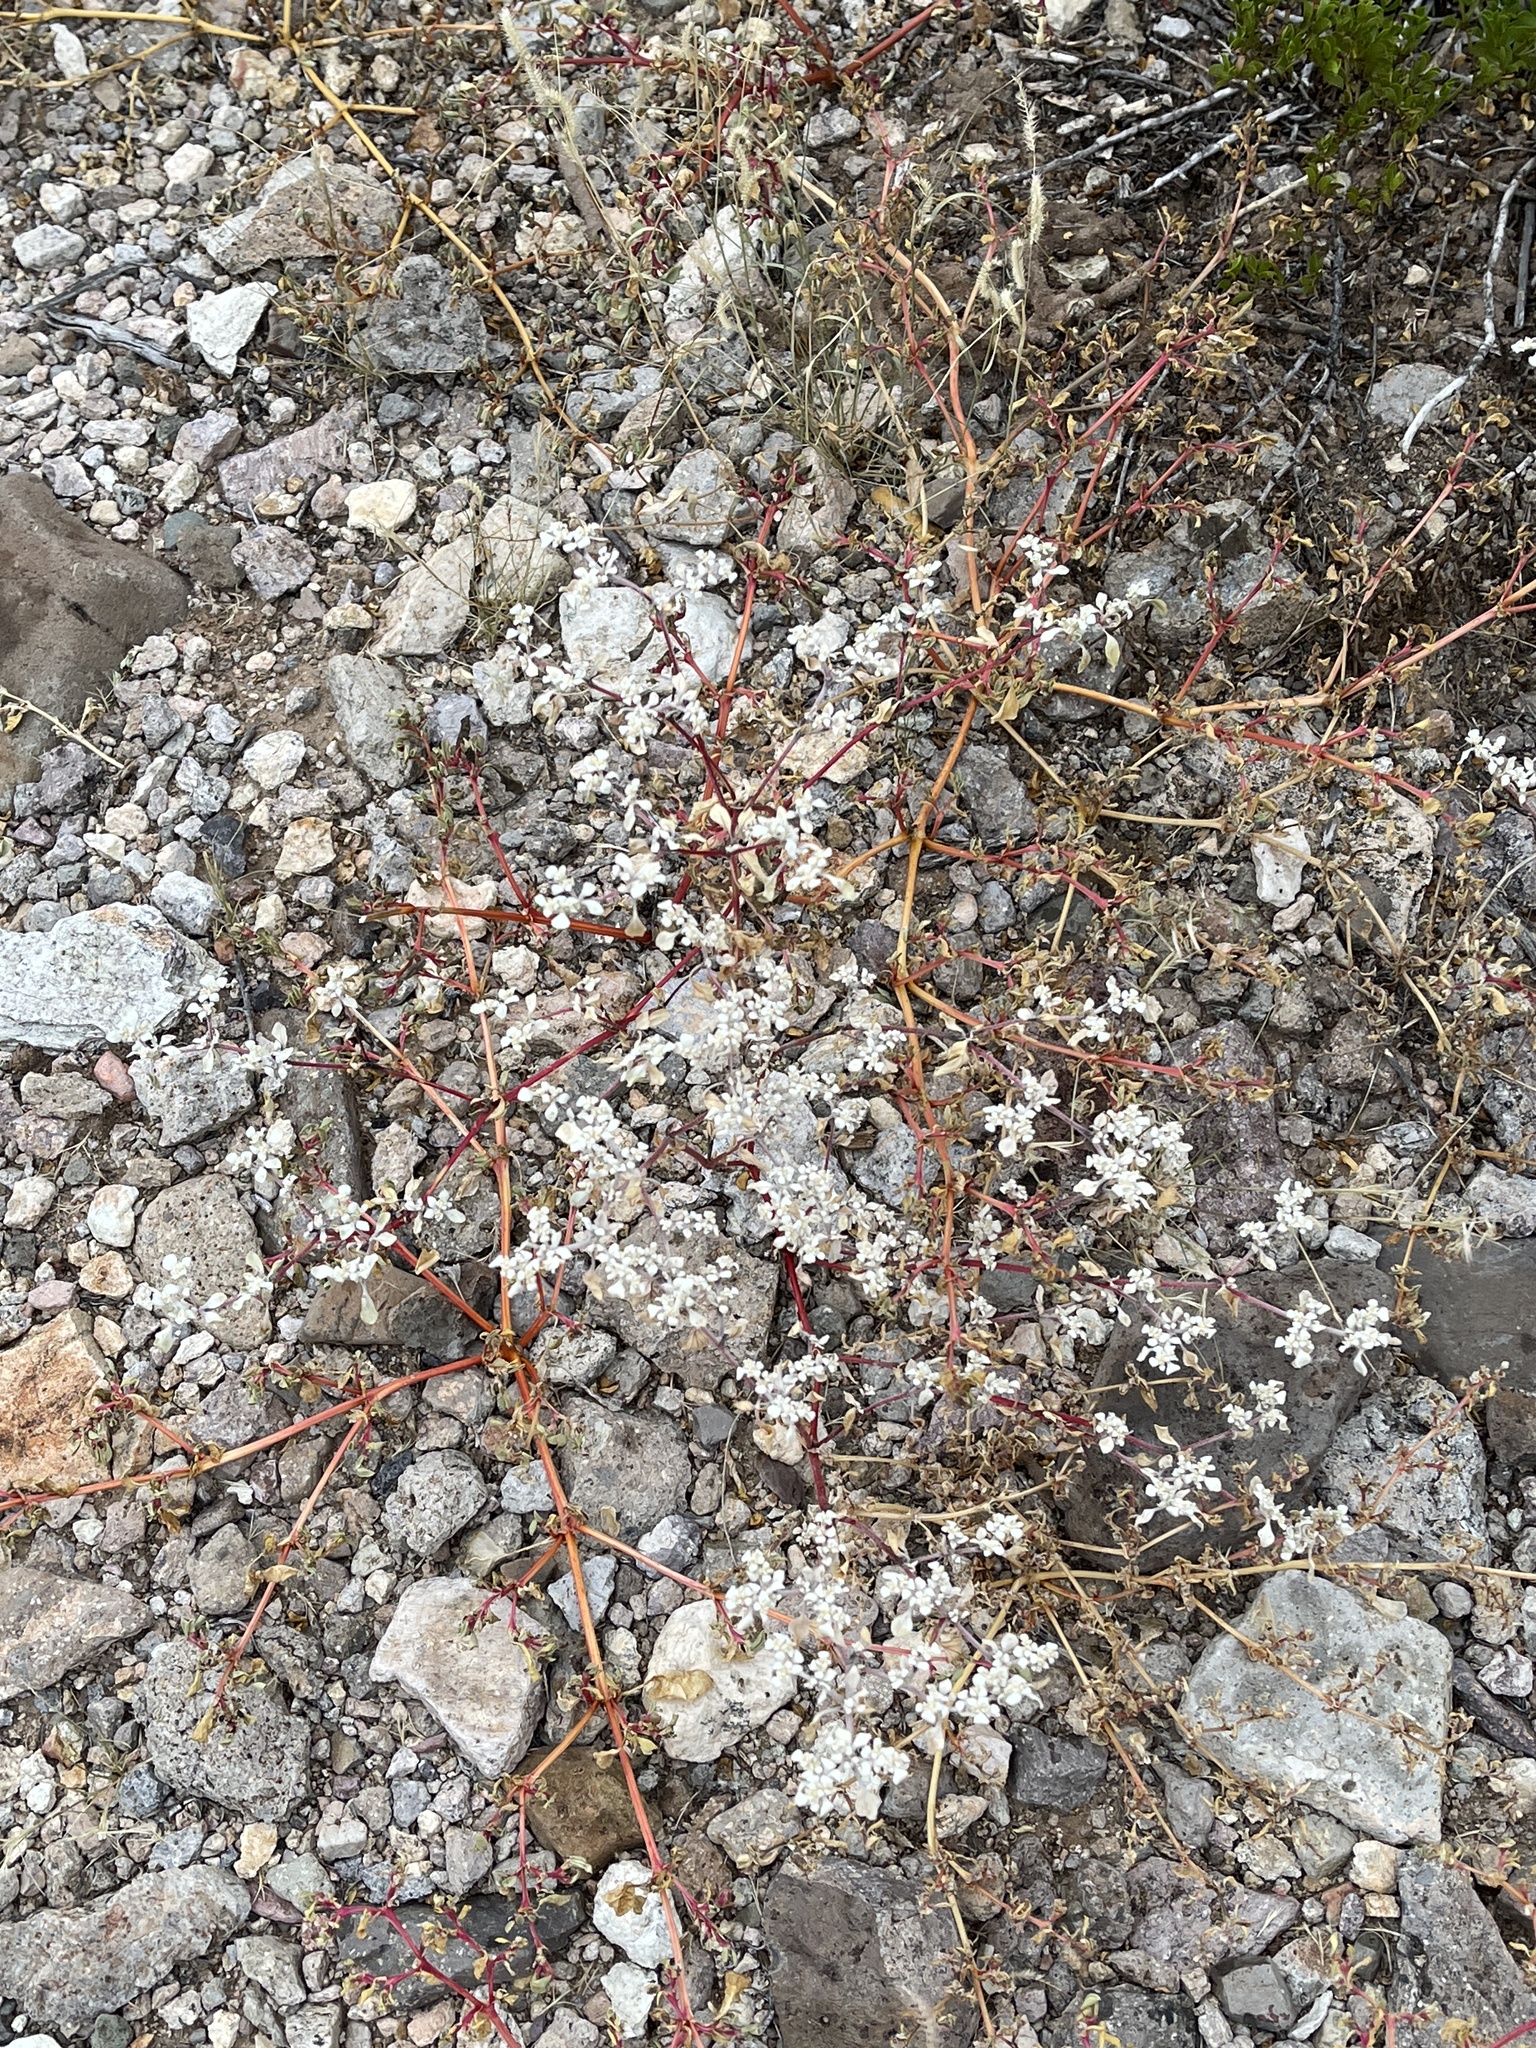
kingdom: Plantae
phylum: Tracheophyta
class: Magnoliopsida
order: Caryophyllales
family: Amaranthaceae
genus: Tidestromia
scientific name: Tidestromia lanuginosa
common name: Woolly tidestromia
